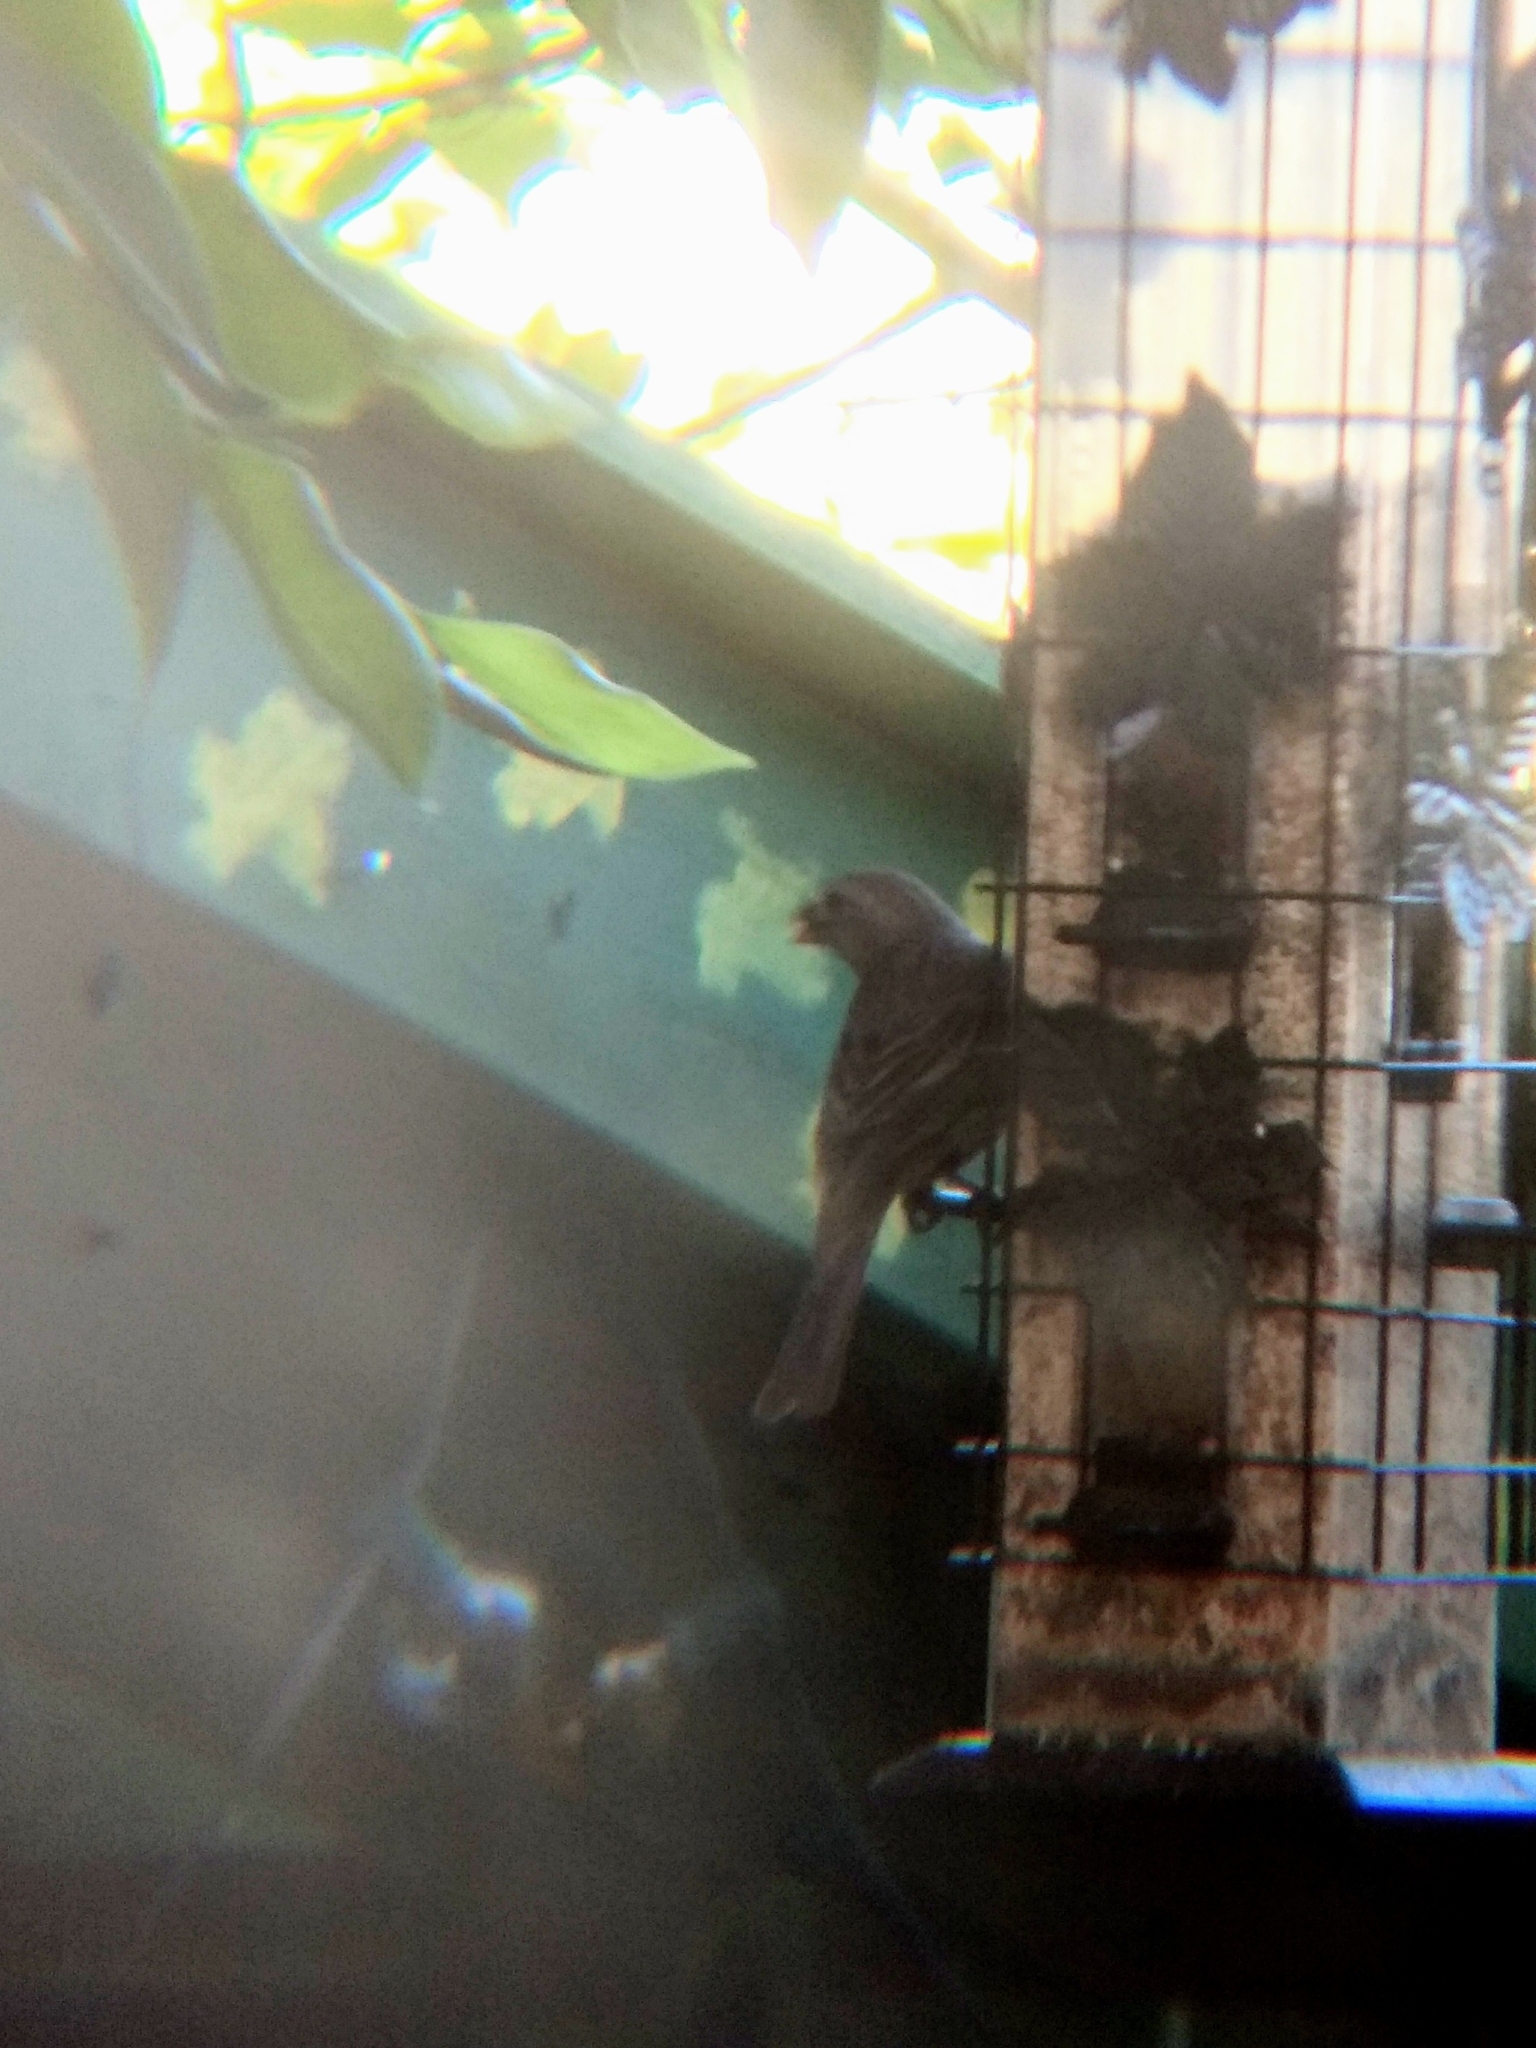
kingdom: Animalia
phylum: Chordata
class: Aves
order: Passeriformes
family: Fringillidae
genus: Haemorhous
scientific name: Haemorhous mexicanus
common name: House finch
